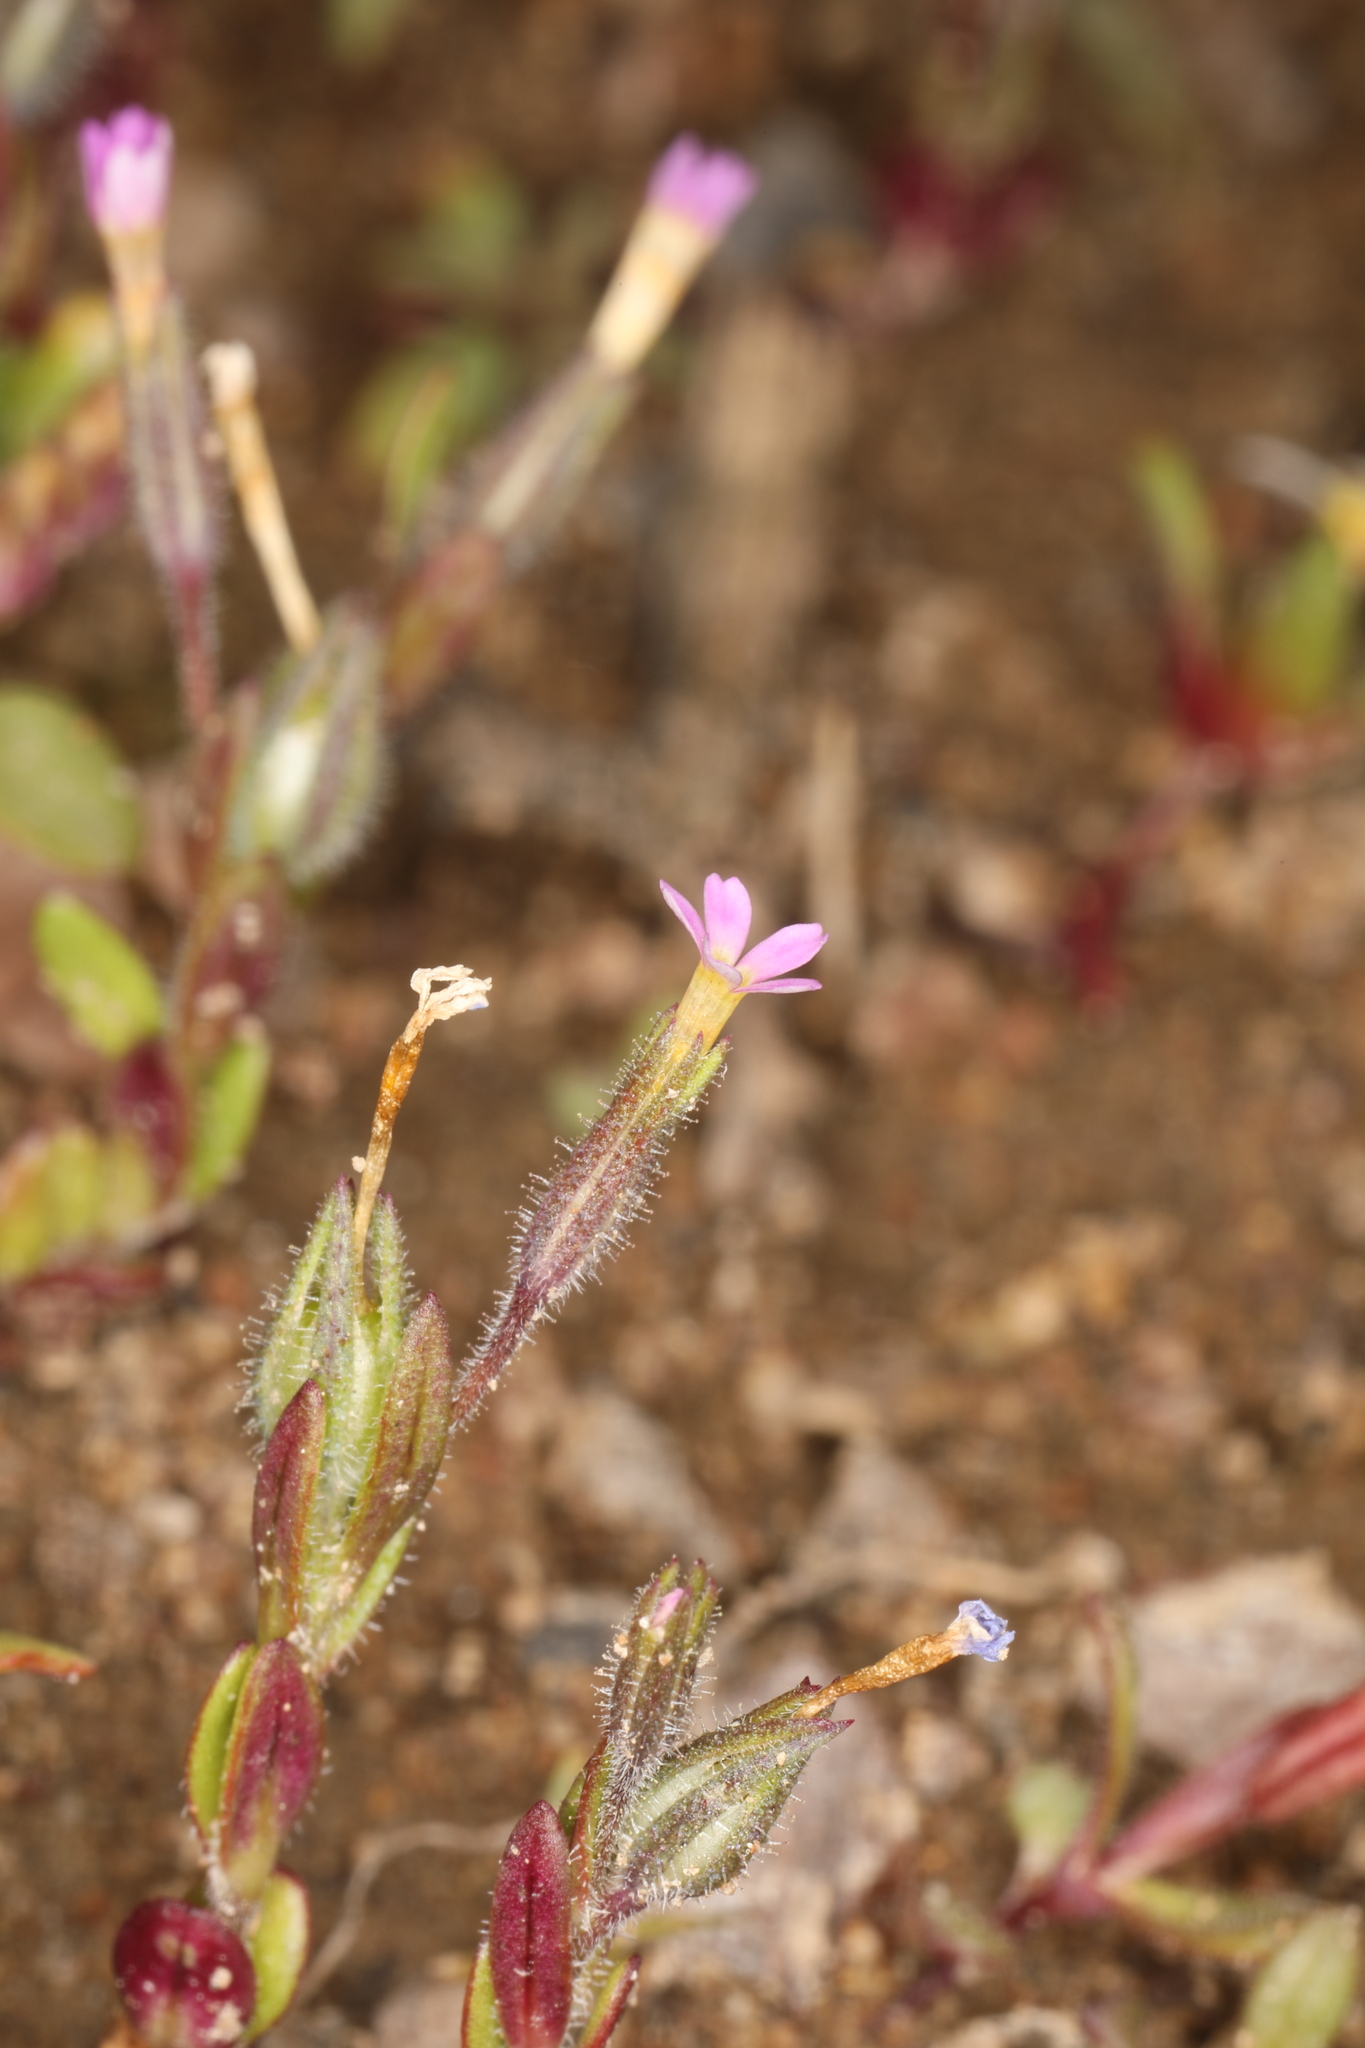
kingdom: Plantae
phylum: Tracheophyta
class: Magnoliopsida
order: Ericales
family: Polemoniaceae
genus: Phlox
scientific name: Phlox gracilis
